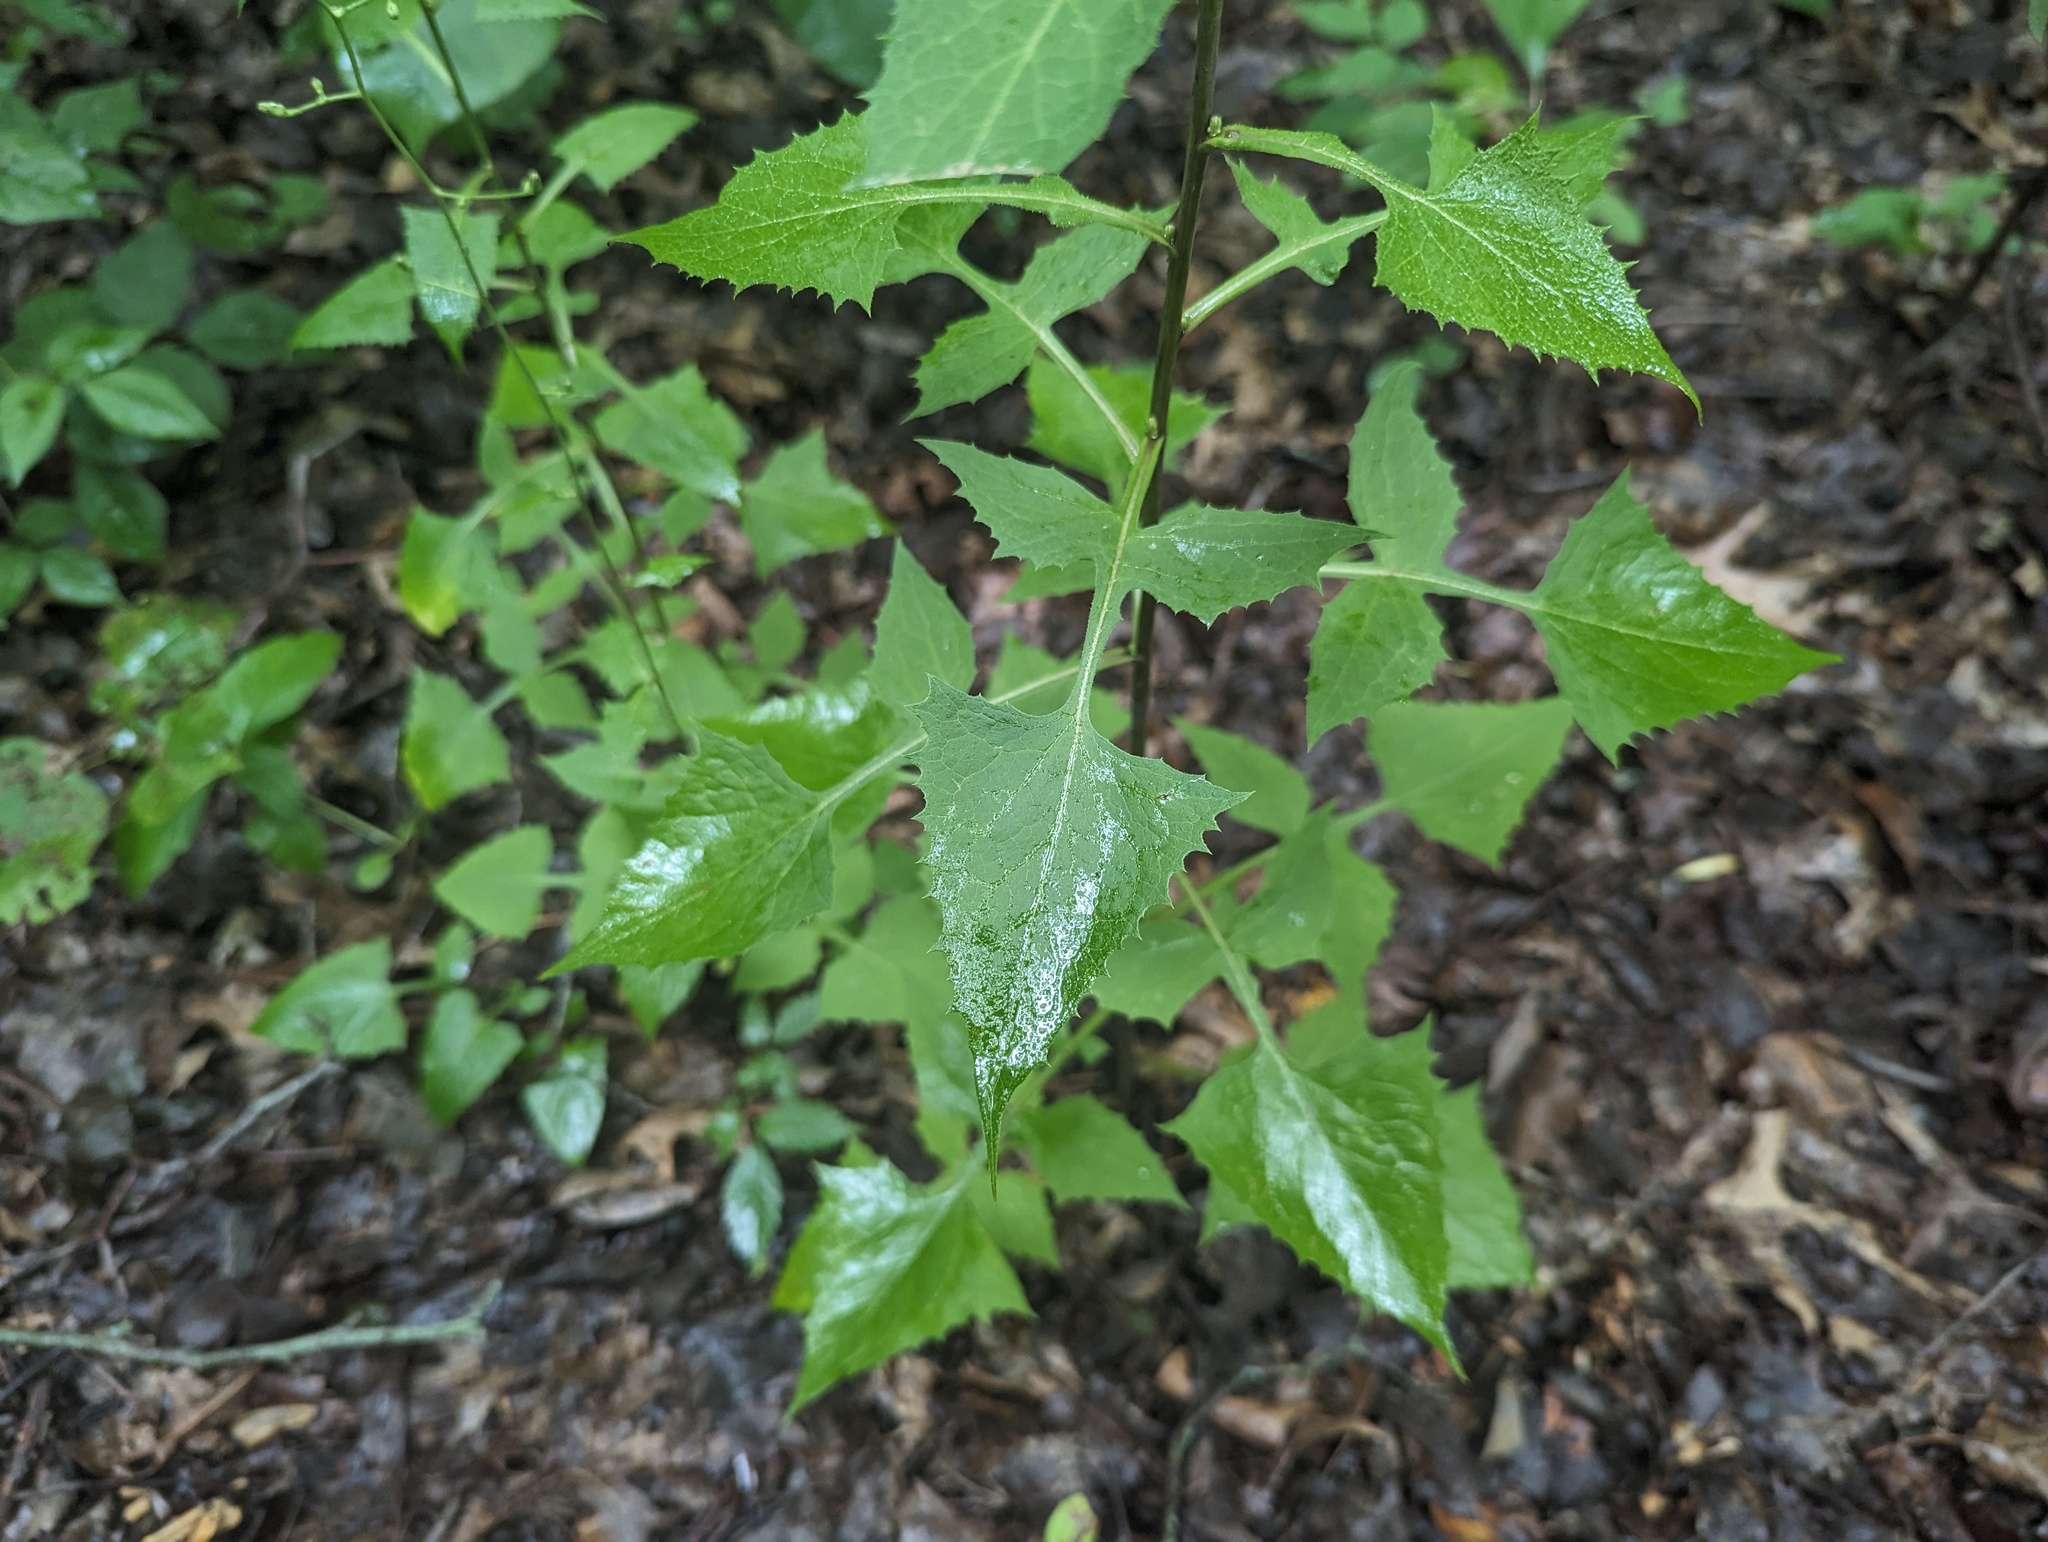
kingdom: Plantae
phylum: Tracheophyta
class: Magnoliopsida
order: Asterales
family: Asteraceae
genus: Lactuca
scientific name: Lactuca floridana
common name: Woodland lettuce
